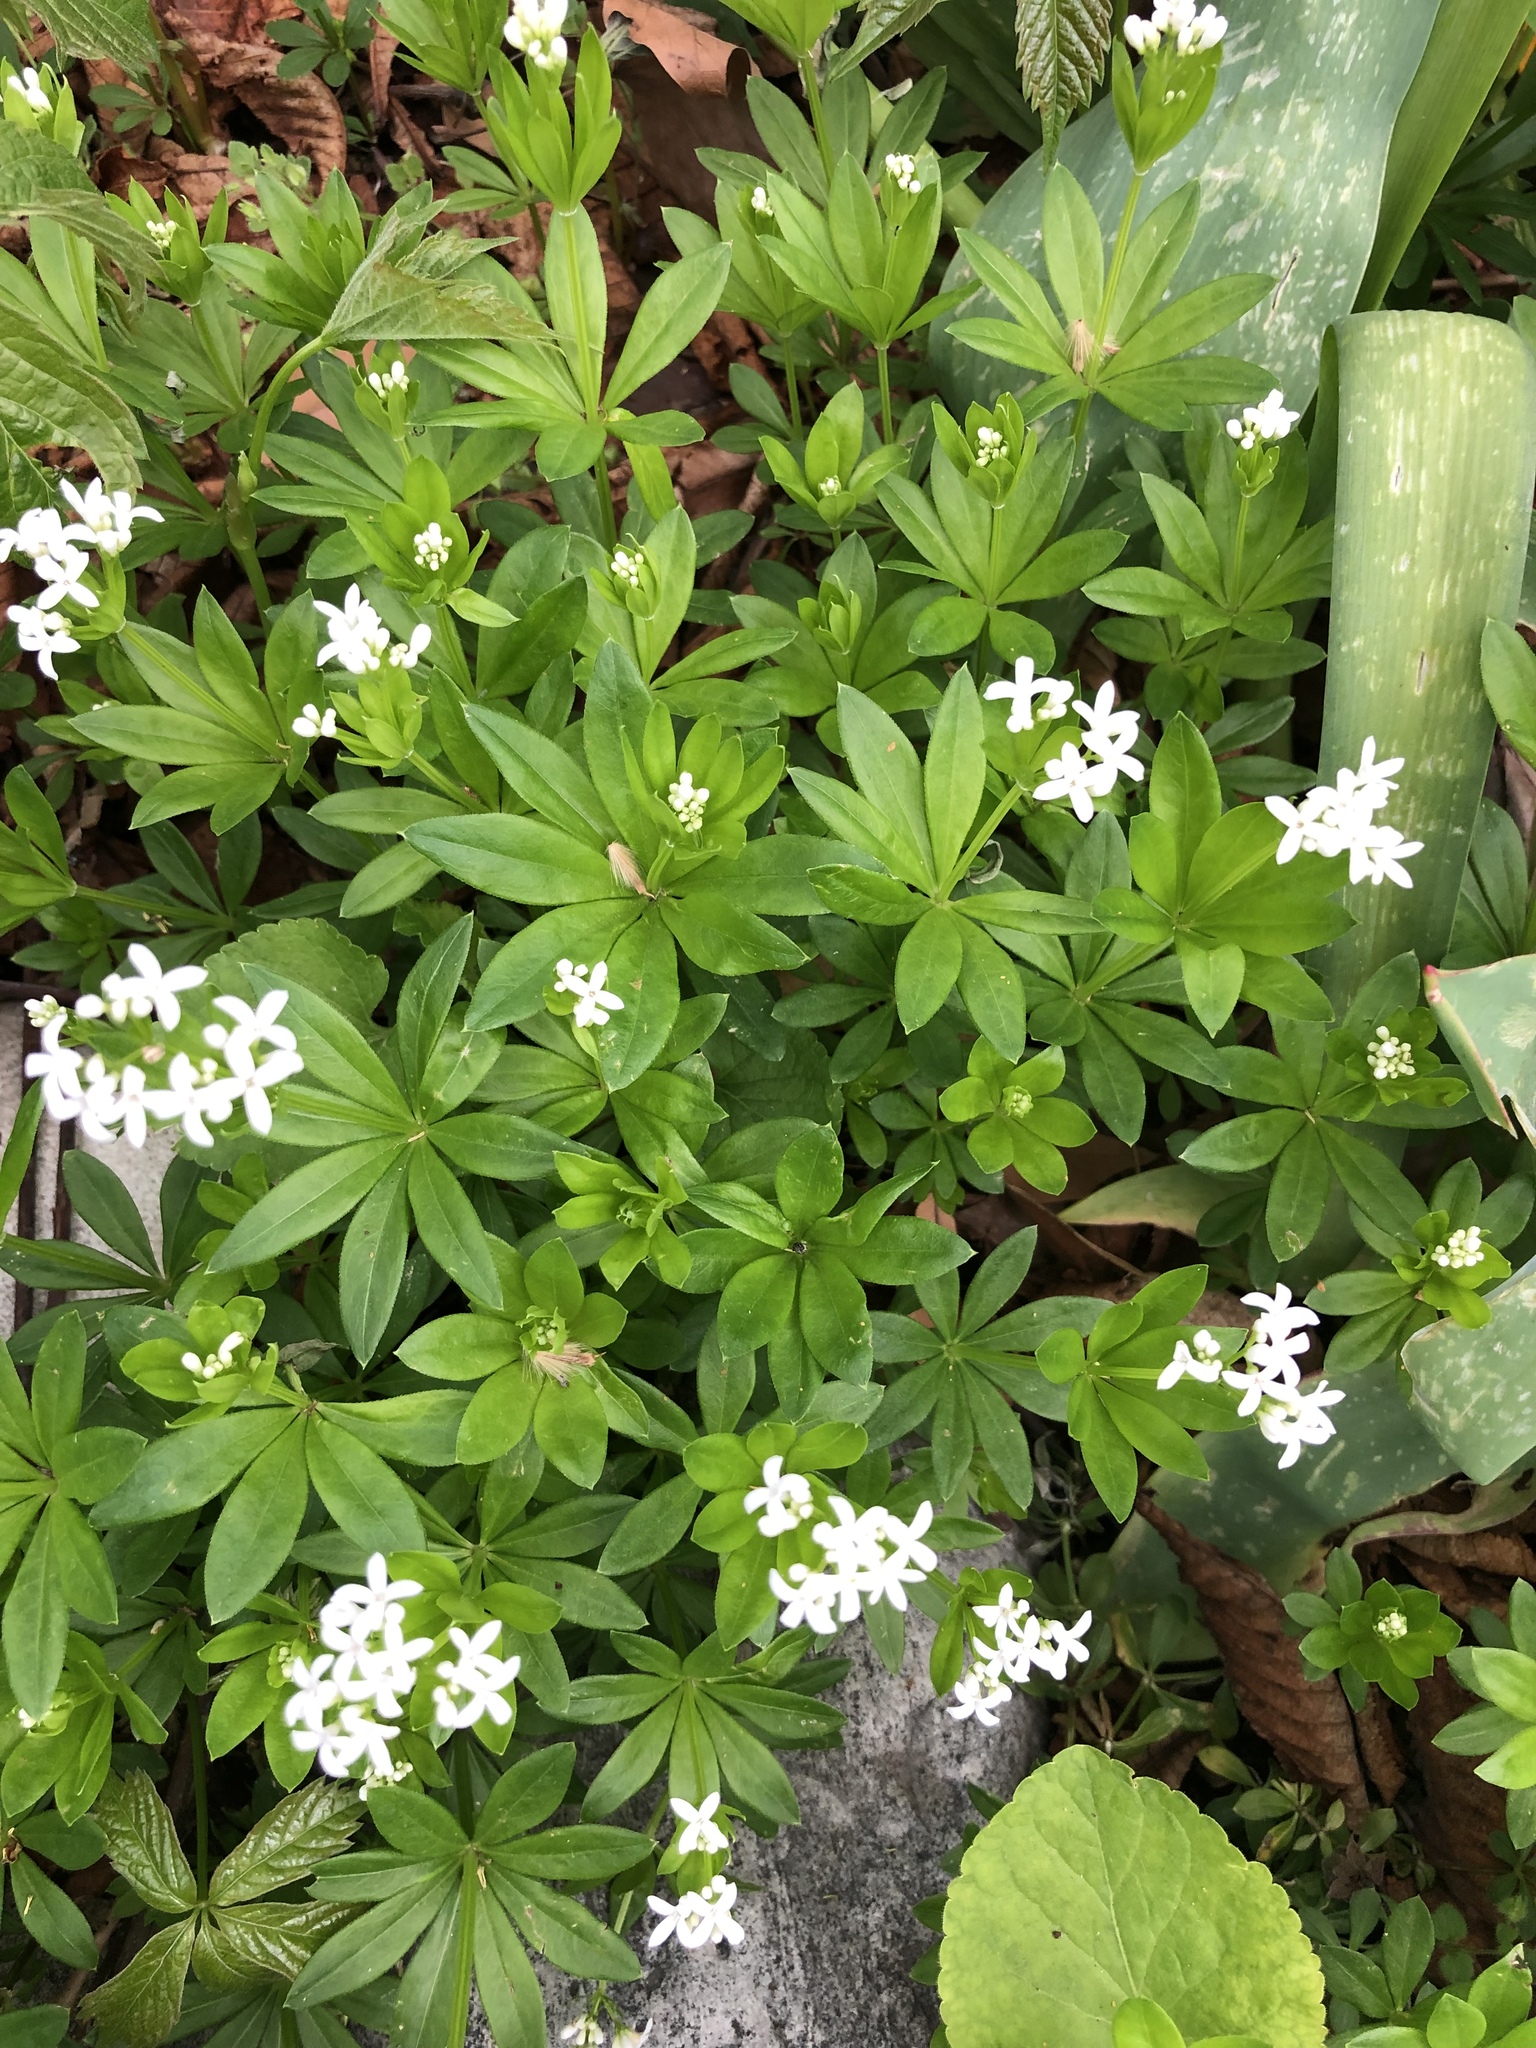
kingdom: Plantae
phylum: Tracheophyta
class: Magnoliopsida
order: Gentianales
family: Rubiaceae
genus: Galium
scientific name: Galium odoratum
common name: Sweet woodruff
